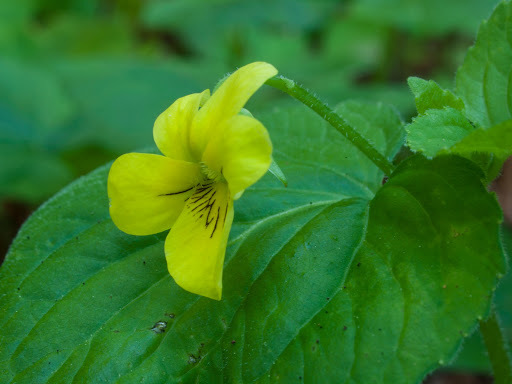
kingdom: Plantae
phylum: Tracheophyta
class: Magnoliopsida
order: Malpighiales
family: Violaceae
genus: Viola
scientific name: Viola glabella
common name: Stream violet
